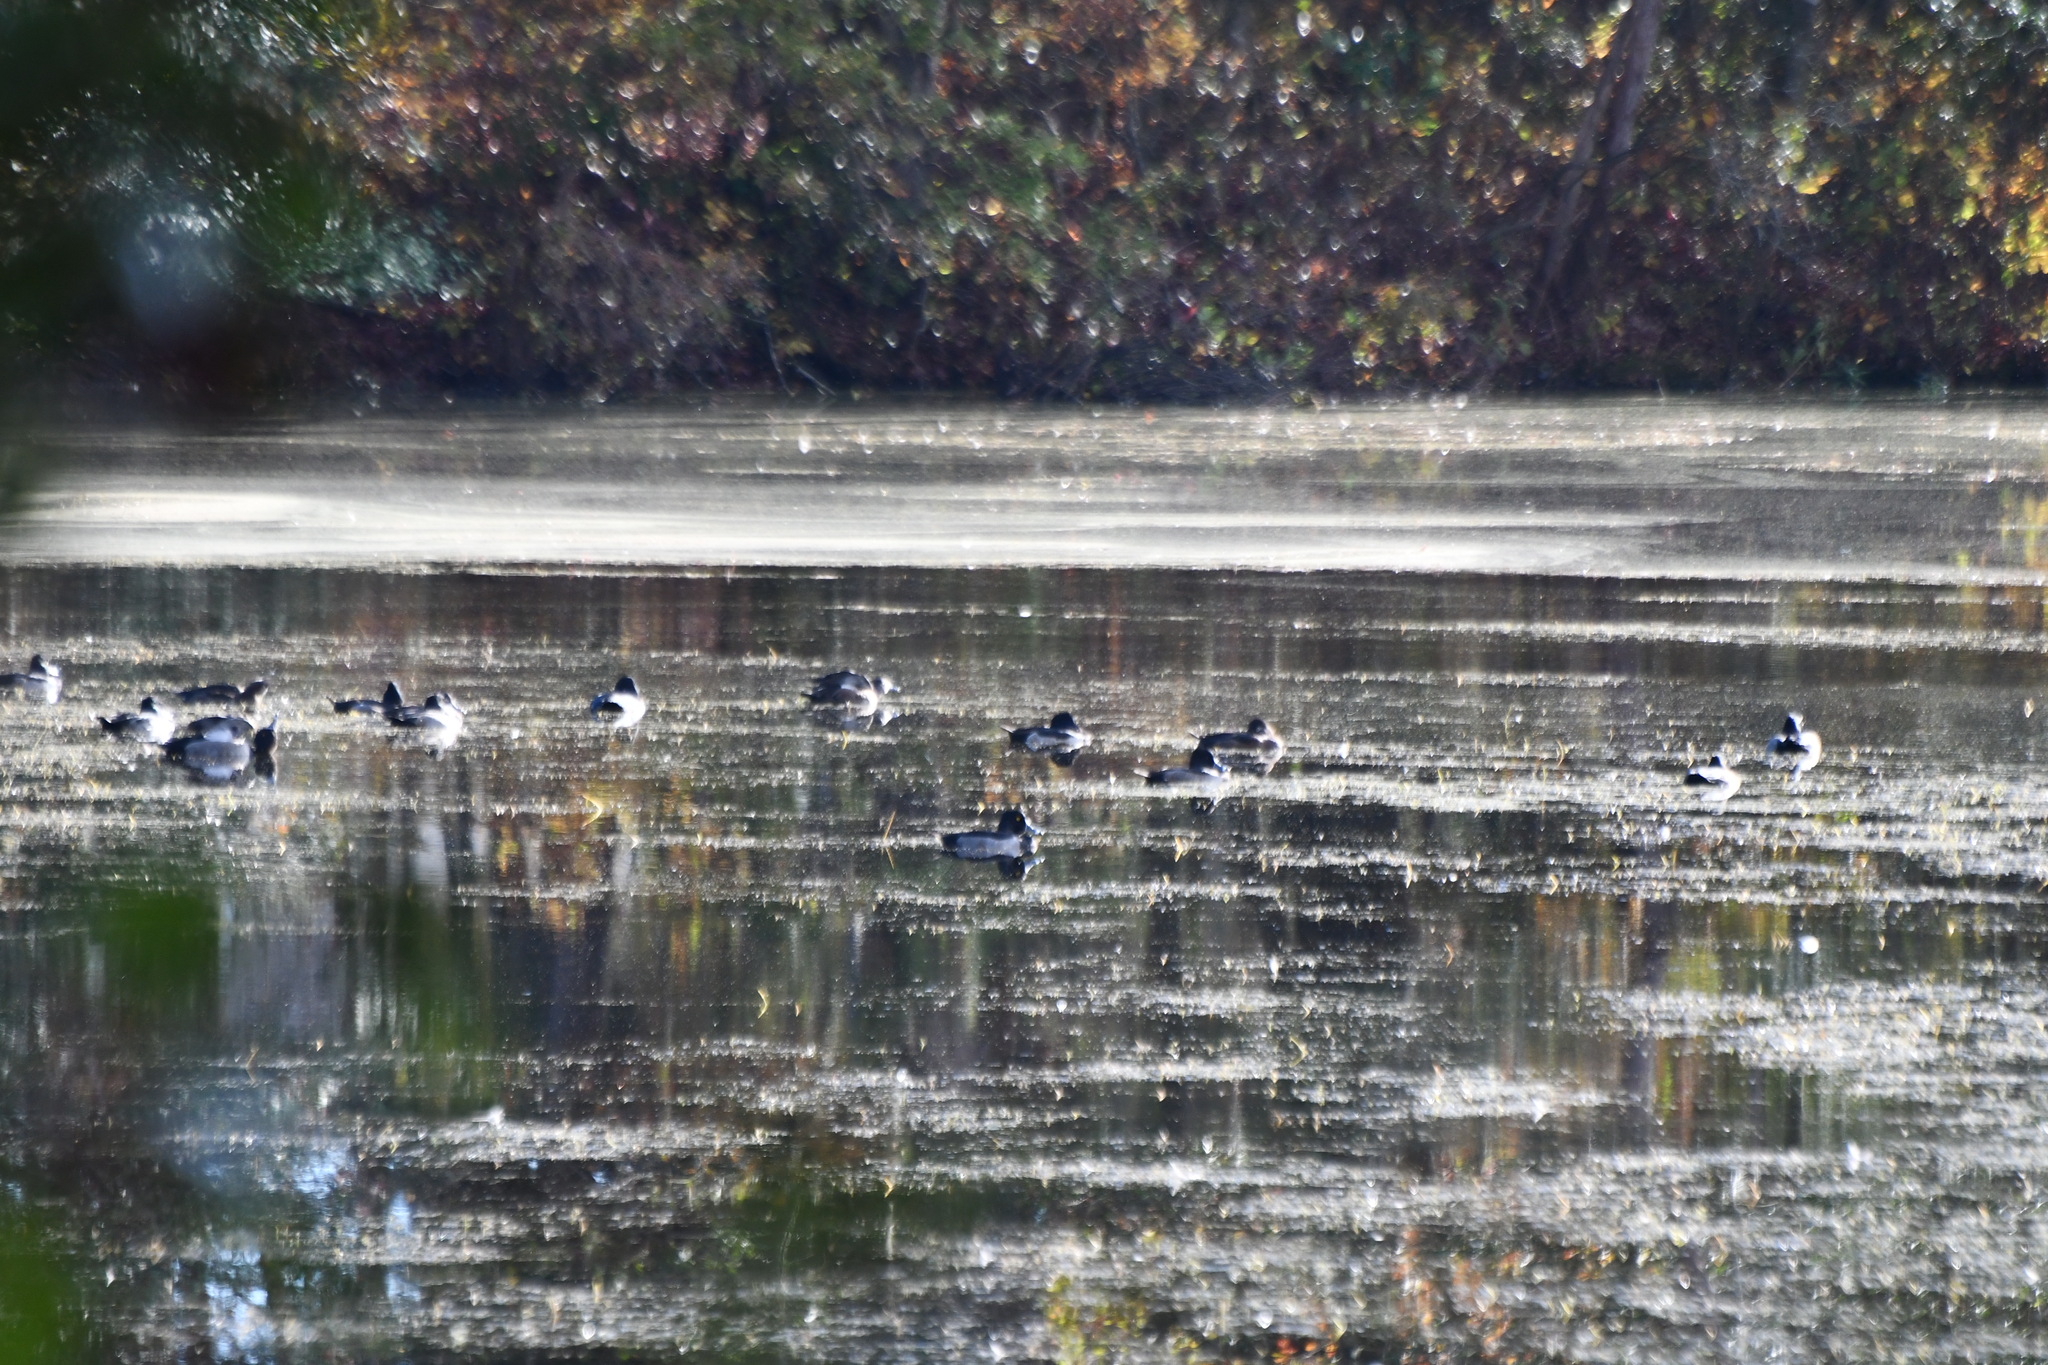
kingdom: Animalia
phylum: Chordata
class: Aves
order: Anseriformes
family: Anatidae
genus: Aythya
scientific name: Aythya collaris
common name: Ring-necked duck
